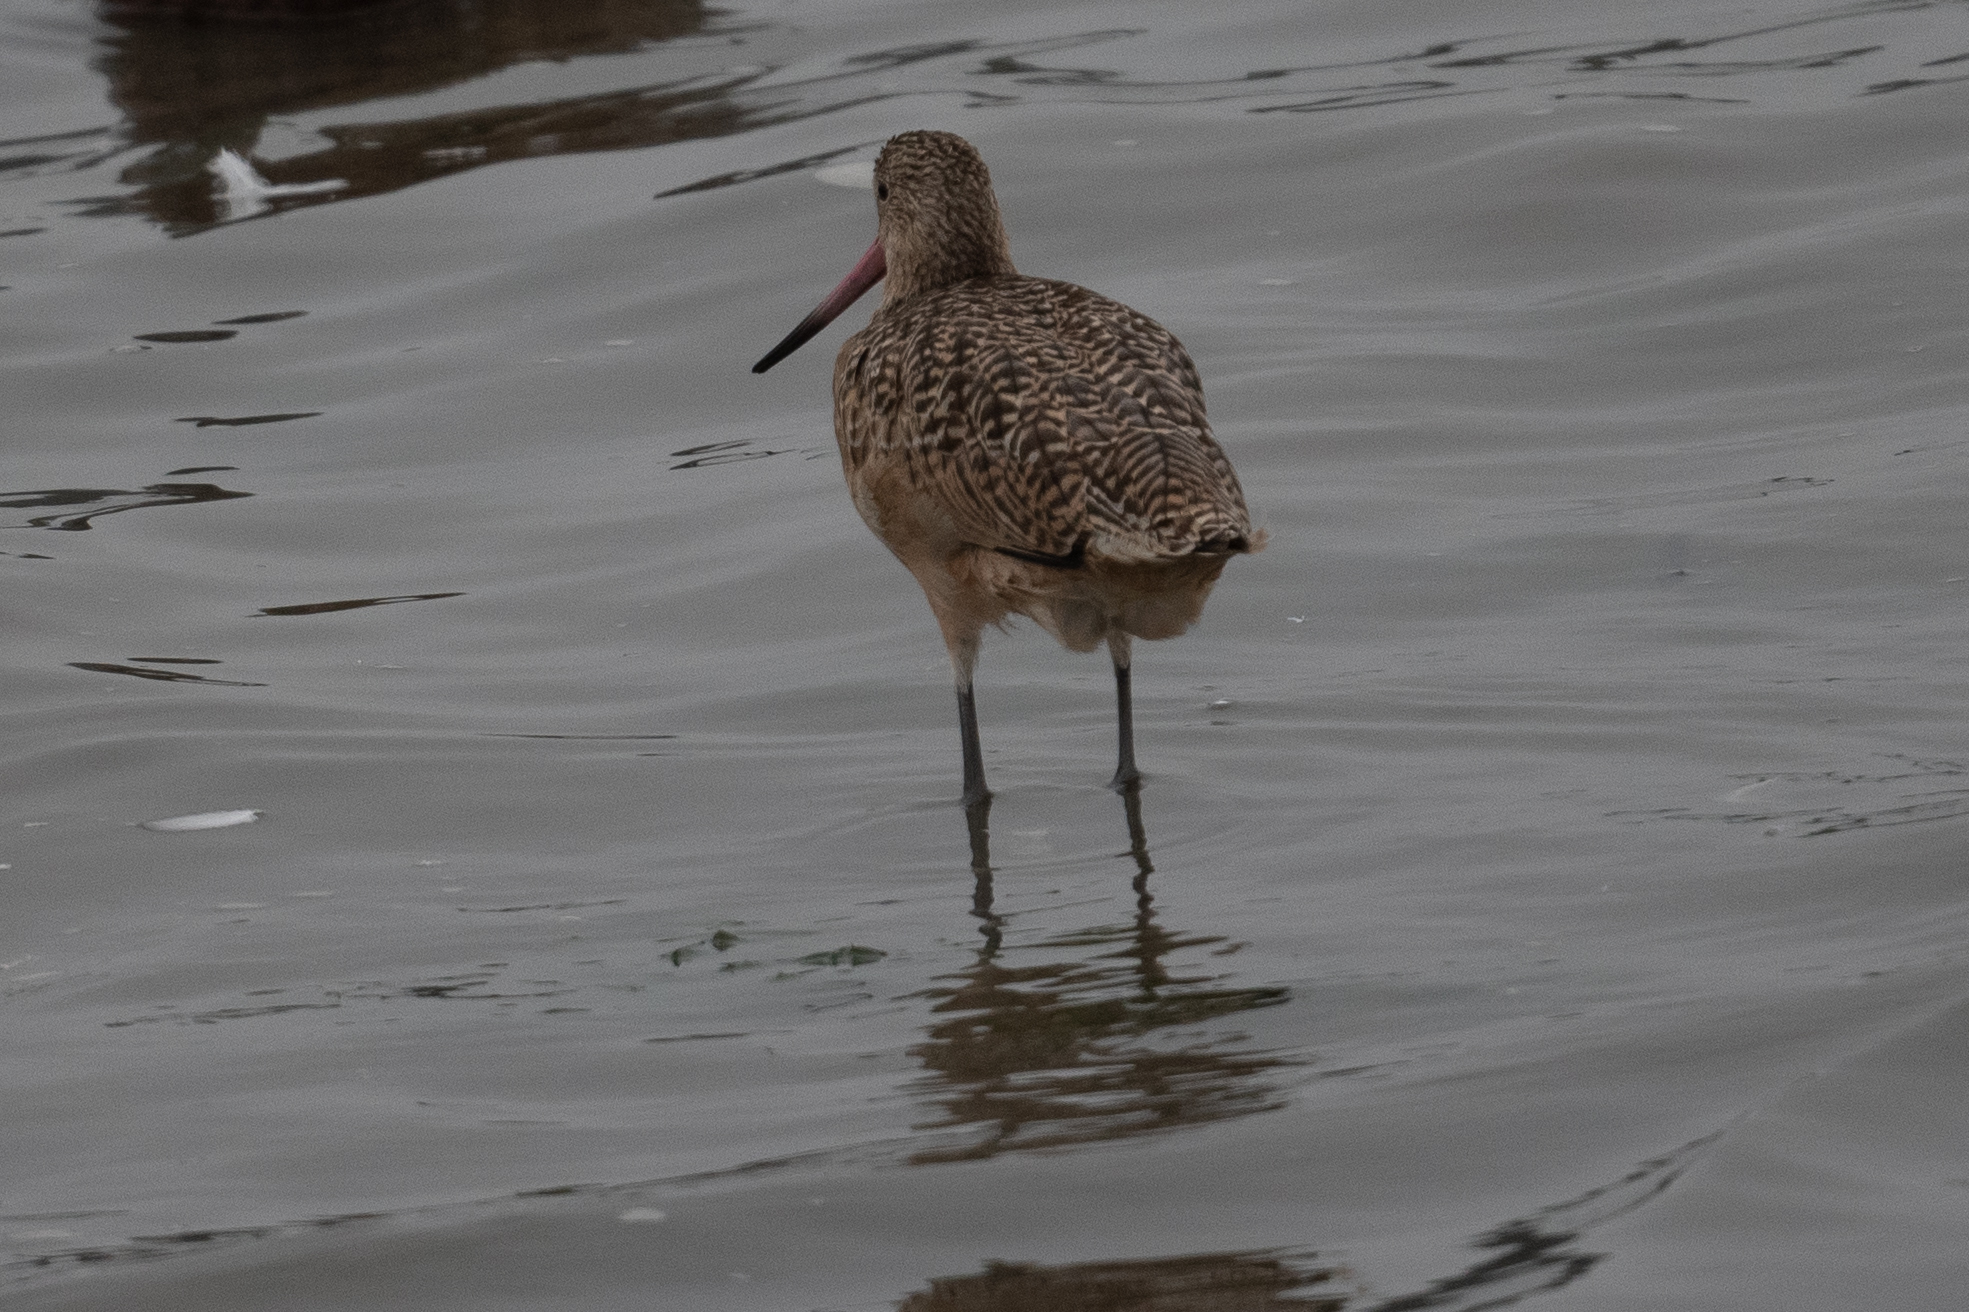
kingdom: Animalia
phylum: Chordata
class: Aves
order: Charadriiformes
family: Scolopacidae
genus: Limosa
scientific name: Limosa fedoa
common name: Marbled godwit
